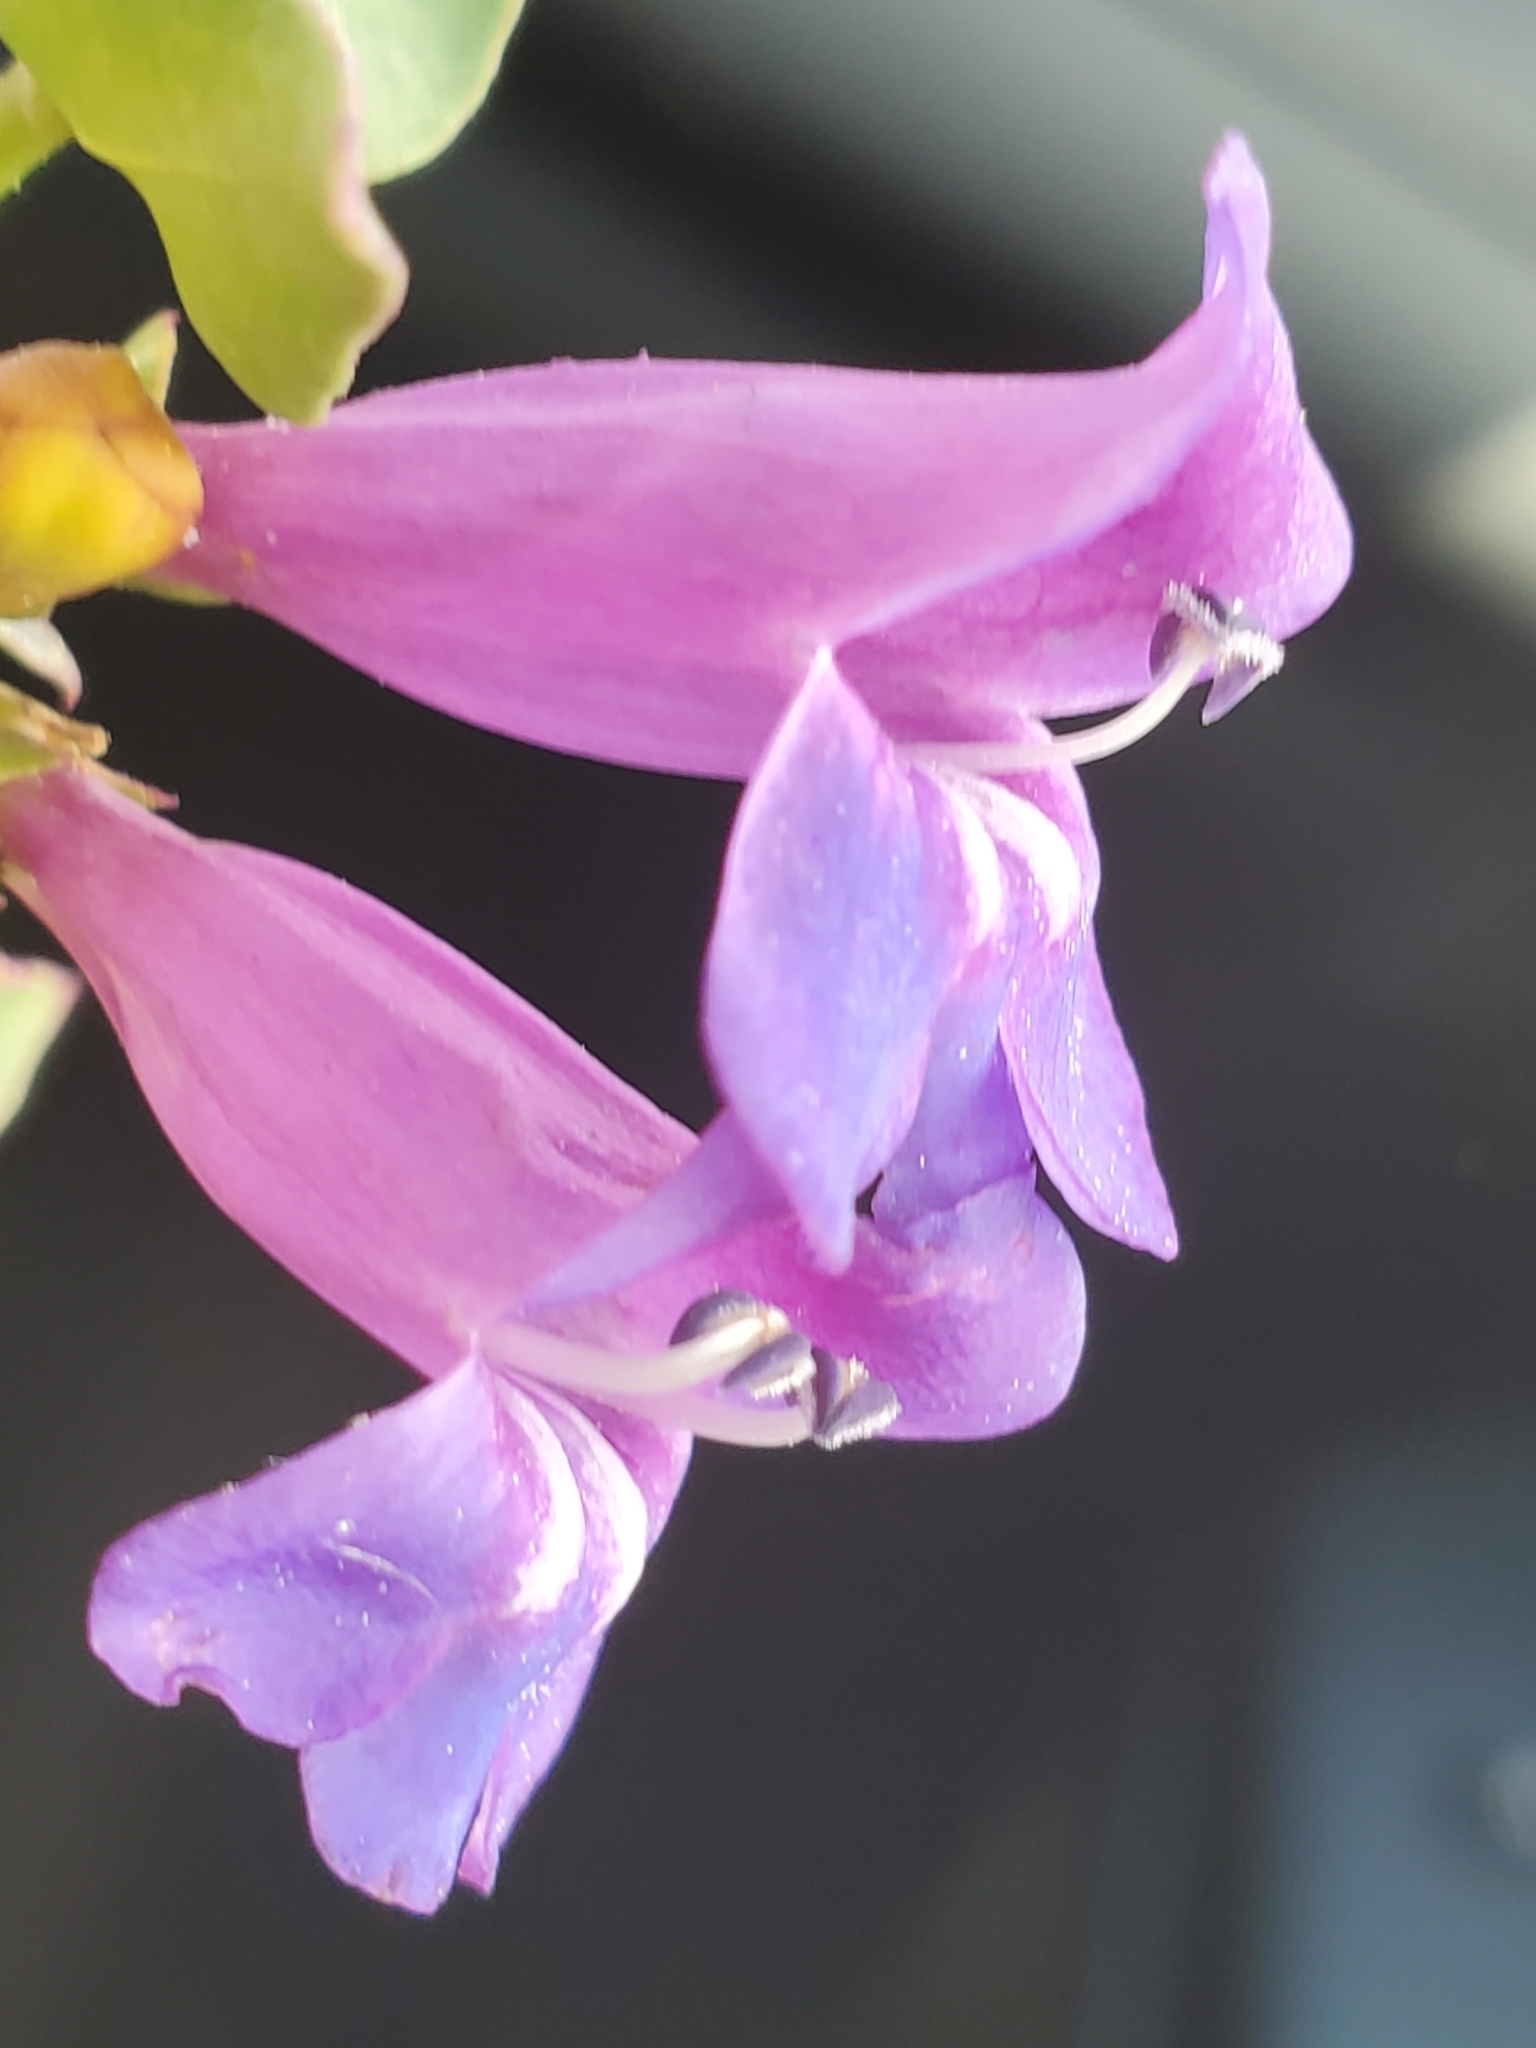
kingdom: Plantae
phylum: Tracheophyta
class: Magnoliopsida
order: Lamiales
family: Plantaginaceae
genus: Penstemon
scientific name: Penstemon azureus
